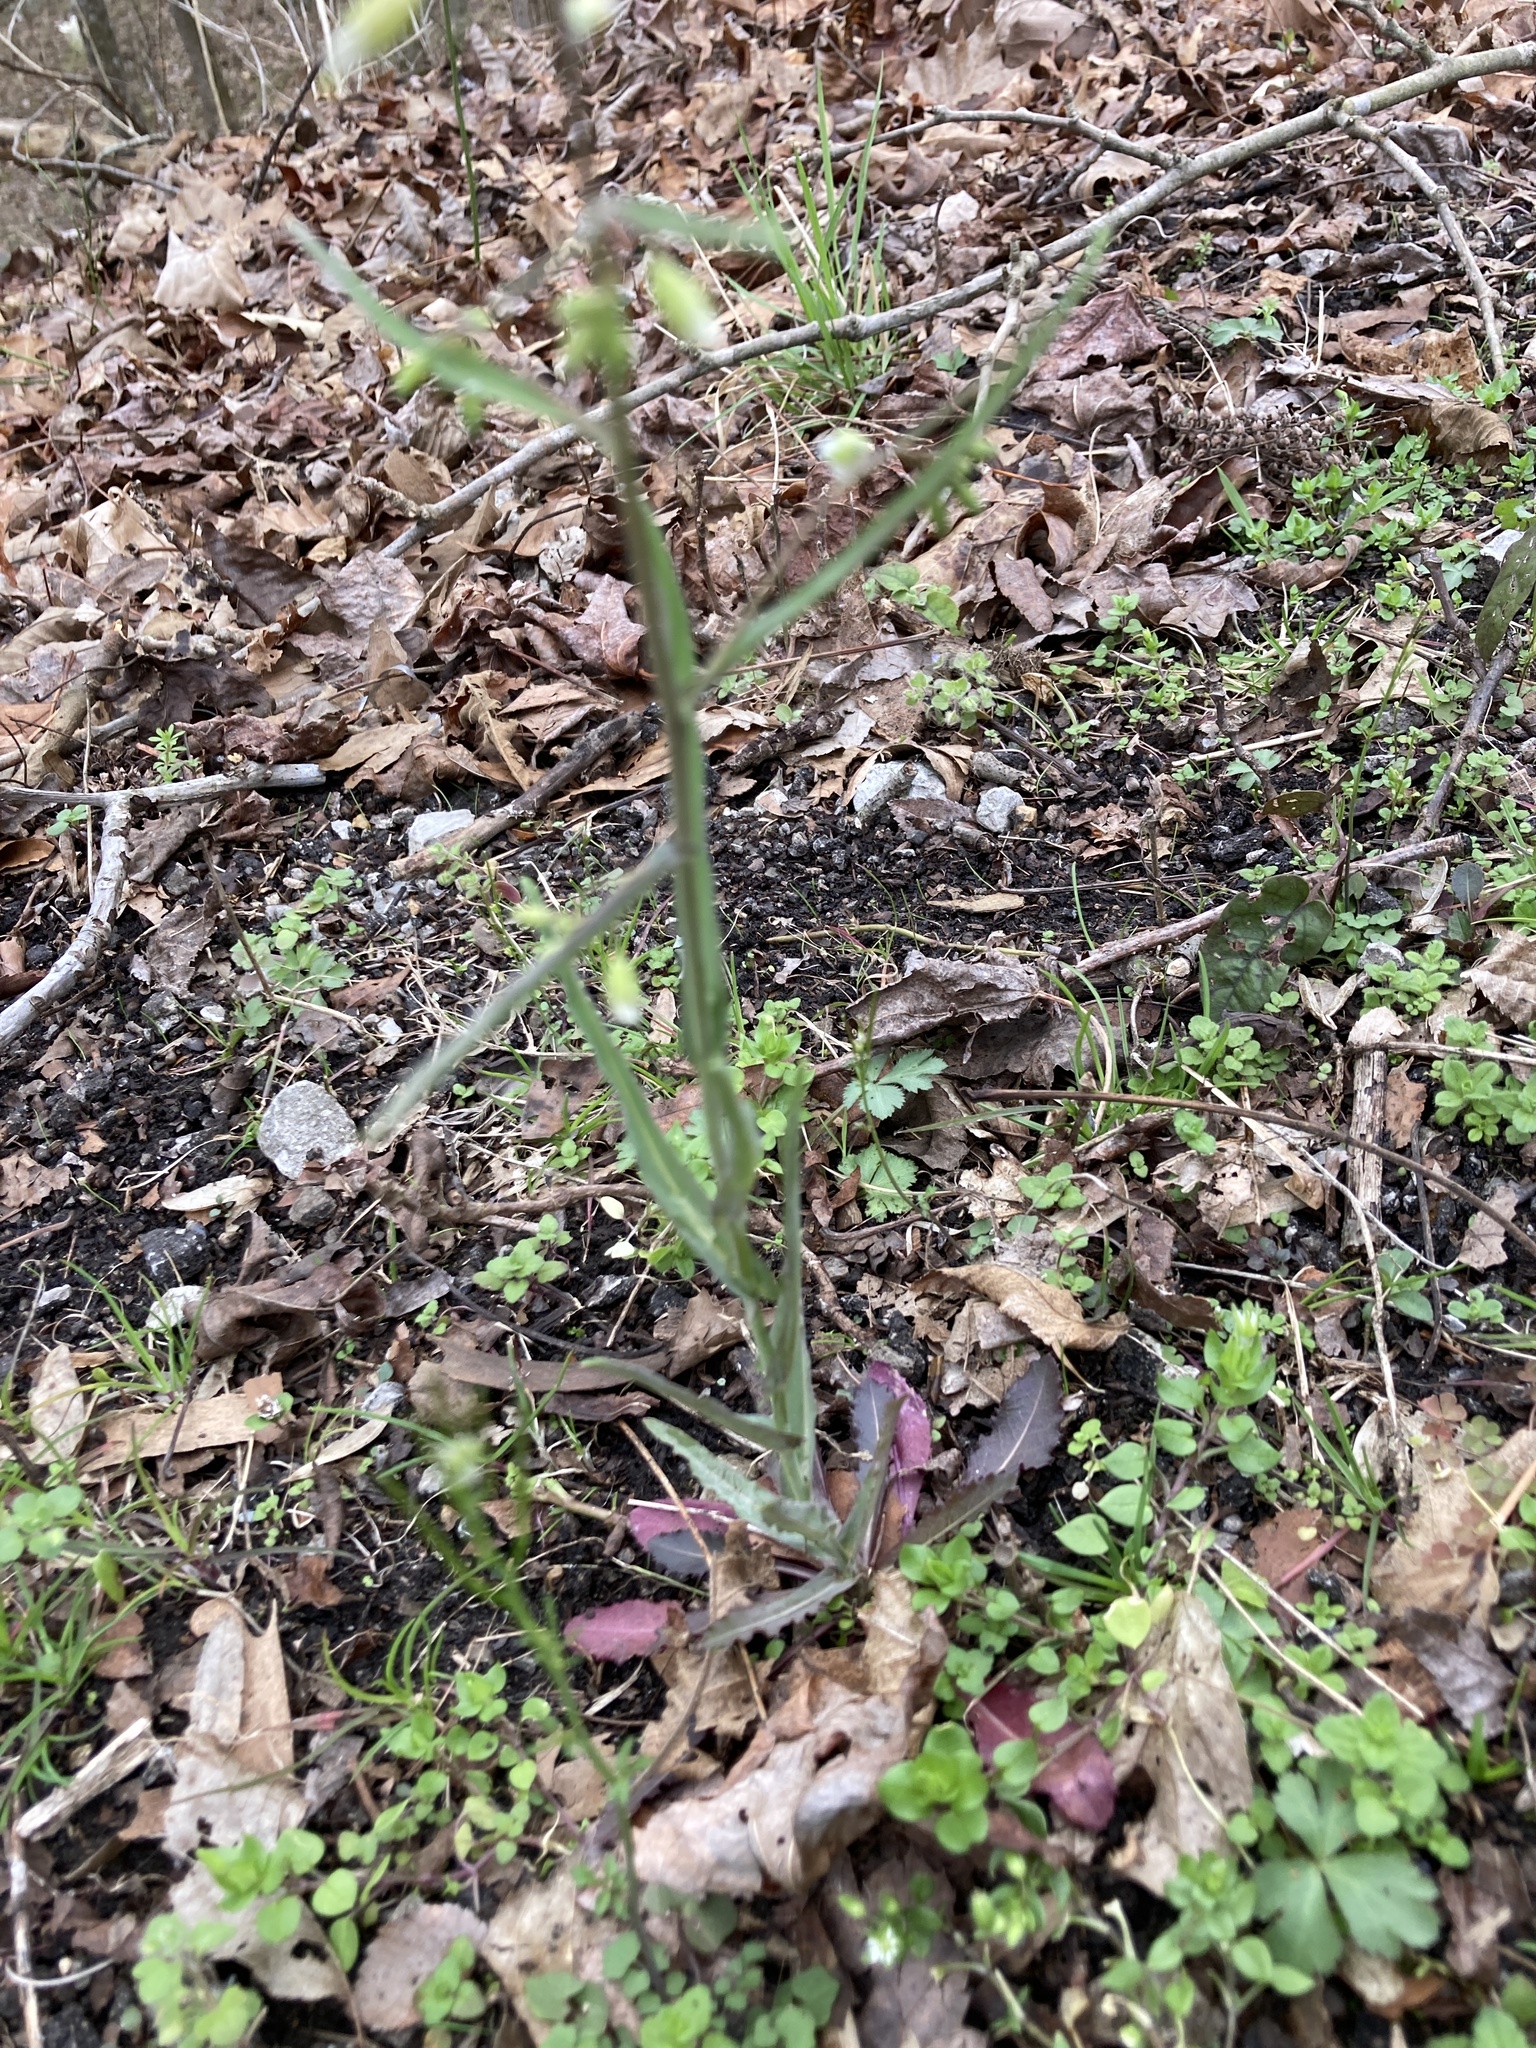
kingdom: Plantae
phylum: Tracheophyta
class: Magnoliopsida
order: Brassicales
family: Brassicaceae
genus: Borodinia
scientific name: Borodinia laevigata
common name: Smooth rockcress
